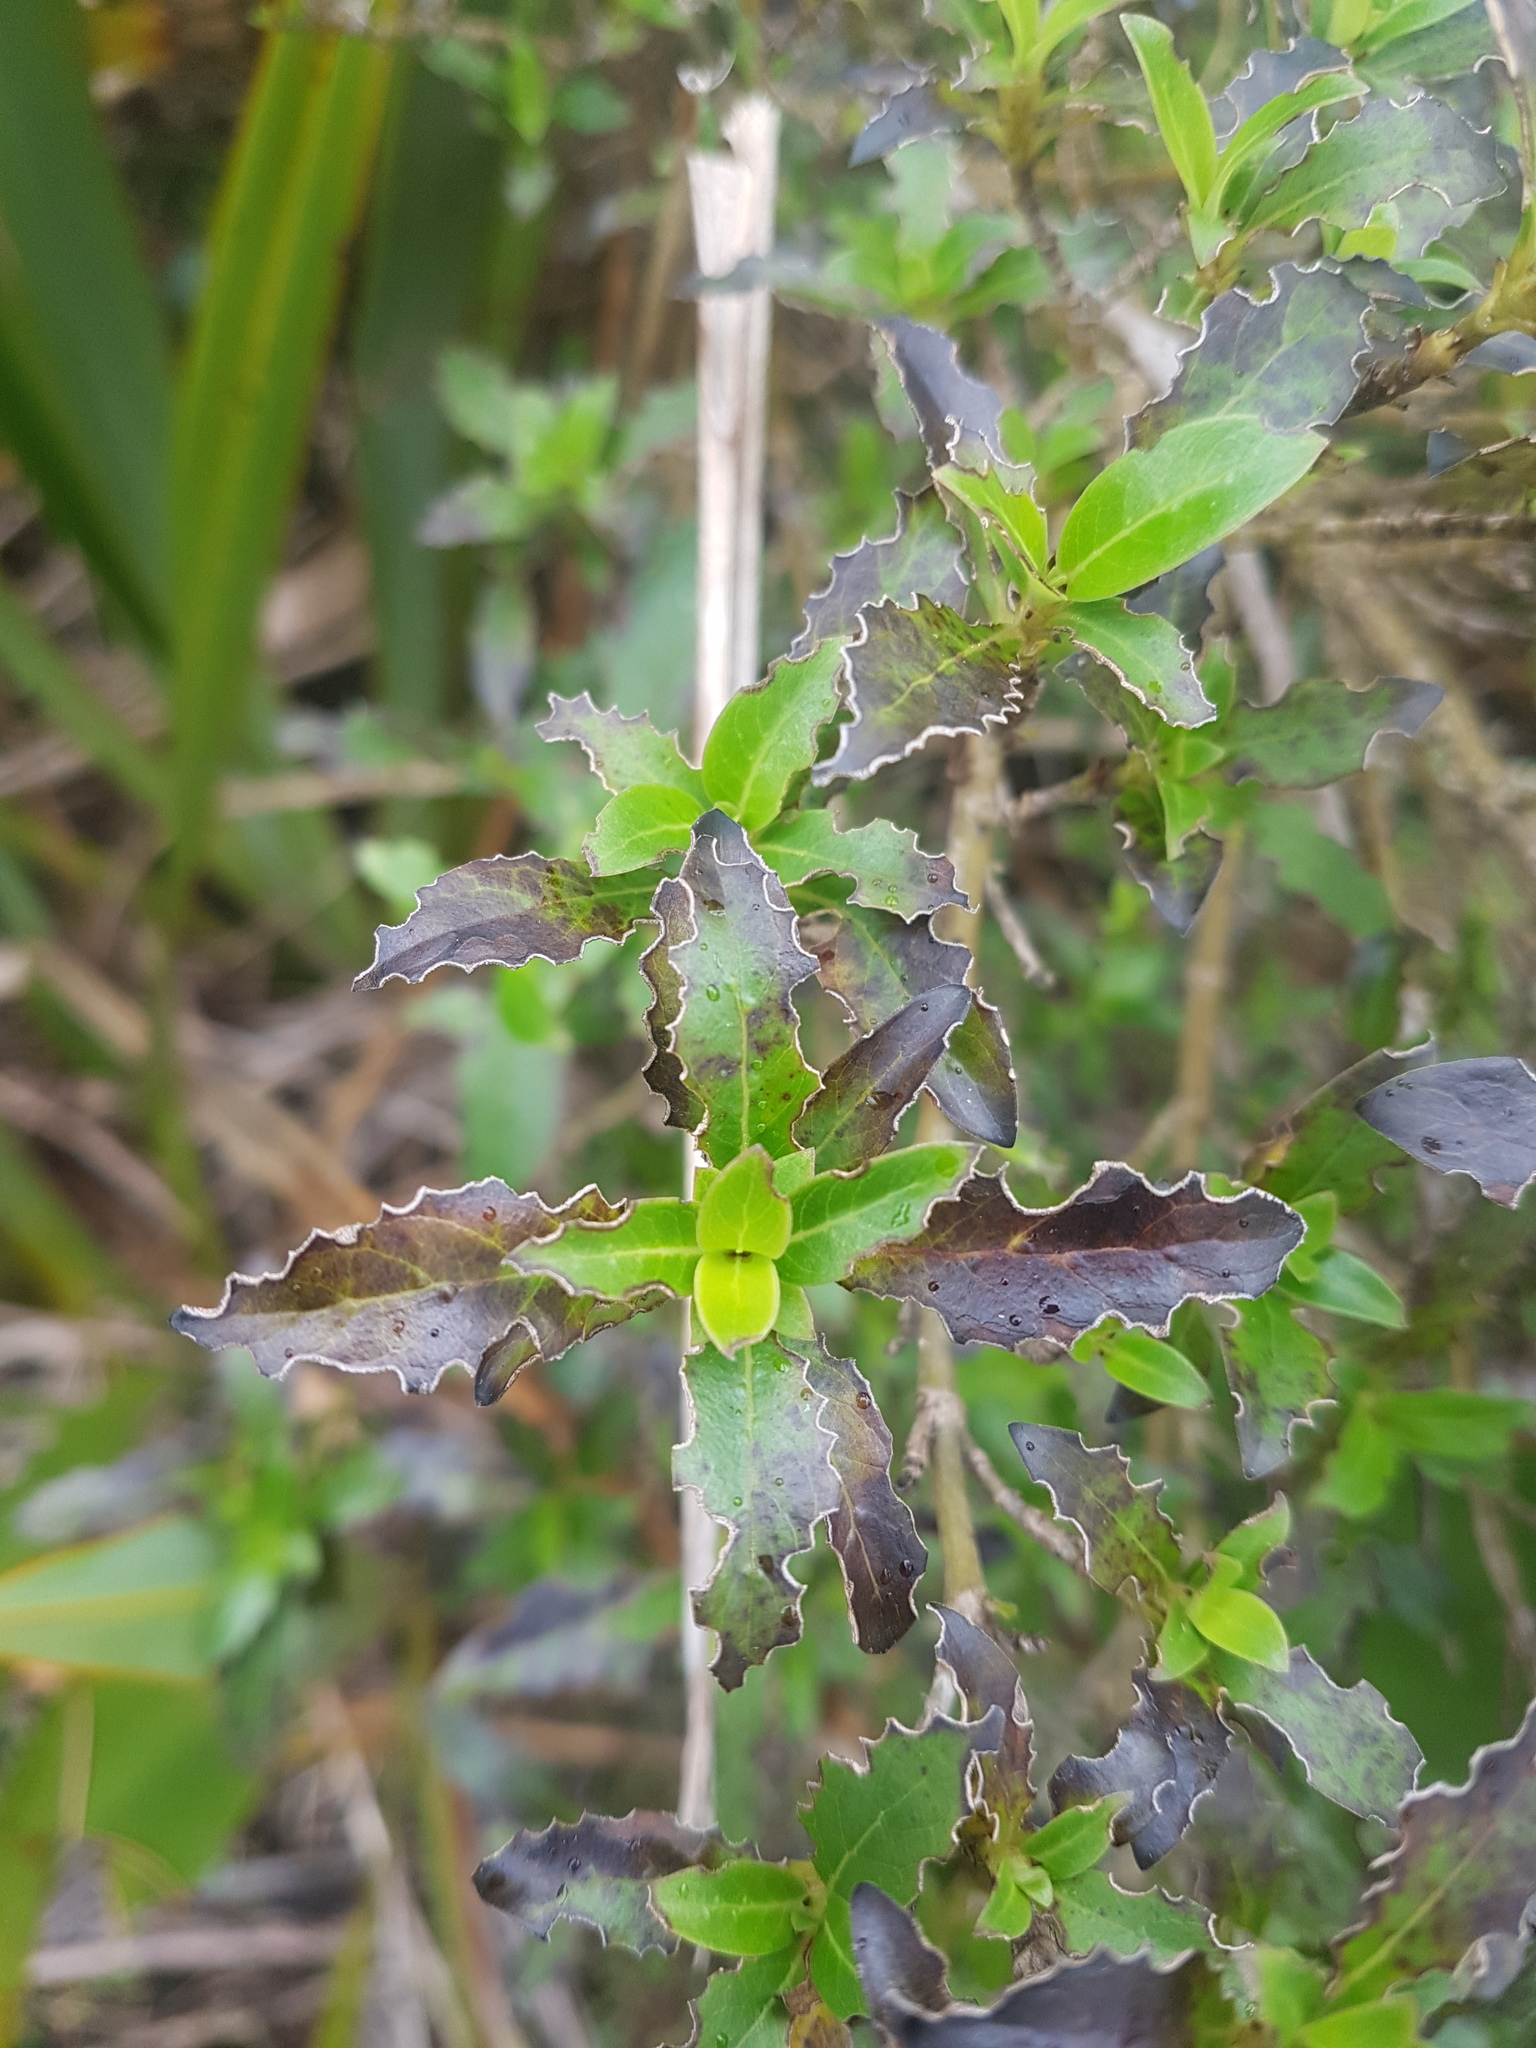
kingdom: Plantae
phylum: Tracheophyta
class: Magnoliopsida
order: Gentianales
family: Rubiaceae
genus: Coprosma
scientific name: Coprosma robusta
